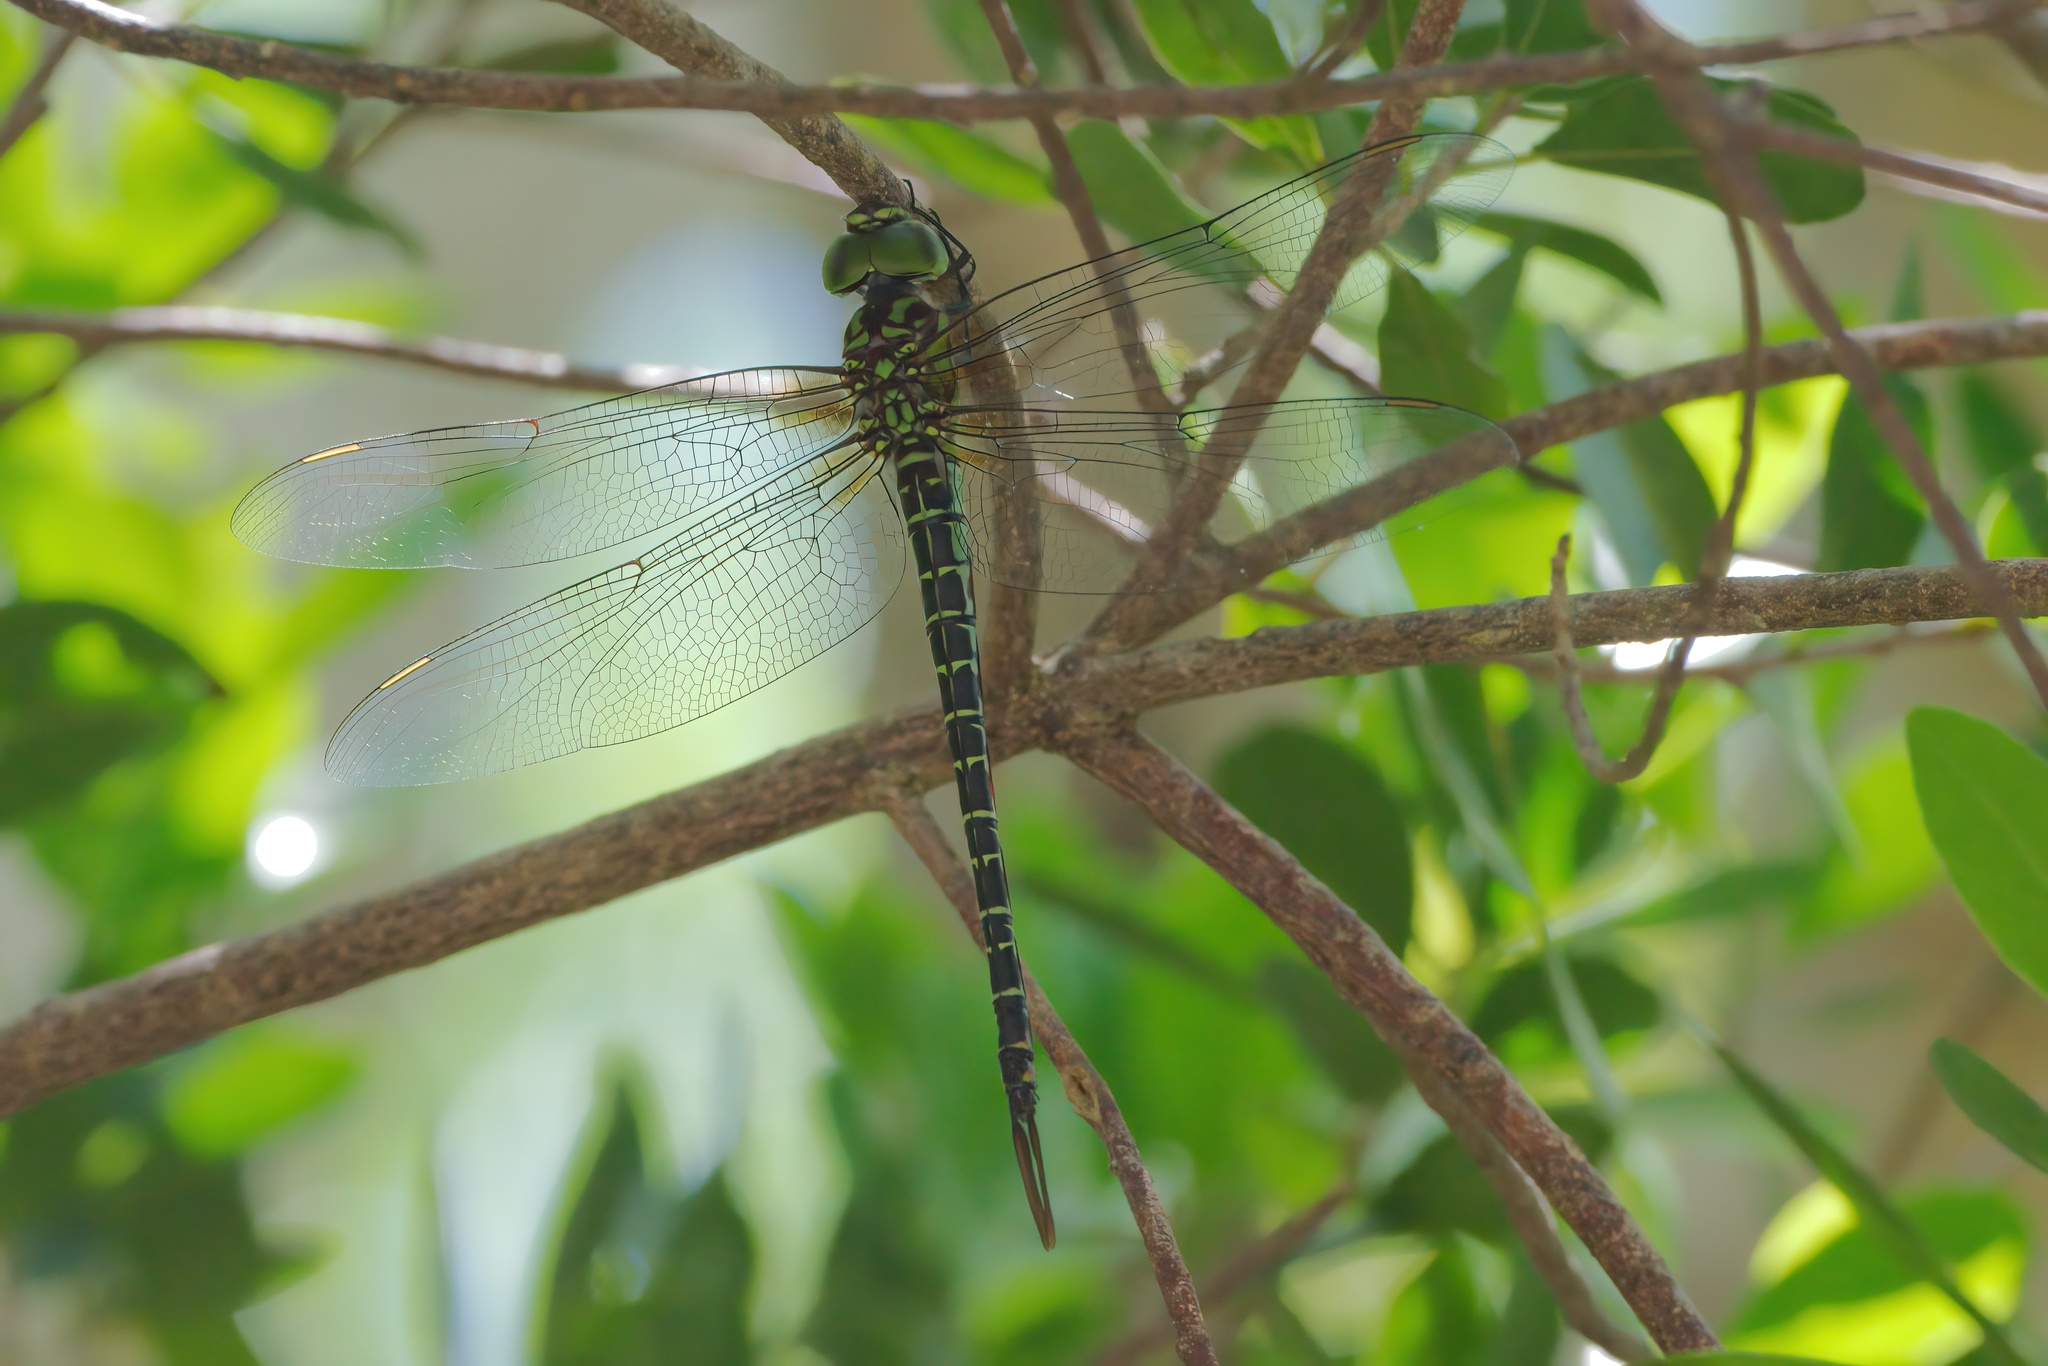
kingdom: Animalia
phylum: Arthropoda
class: Insecta
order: Odonata
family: Aeshnidae
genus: Coryphaeschna
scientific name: Coryphaeschna ingens
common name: Regal darner
